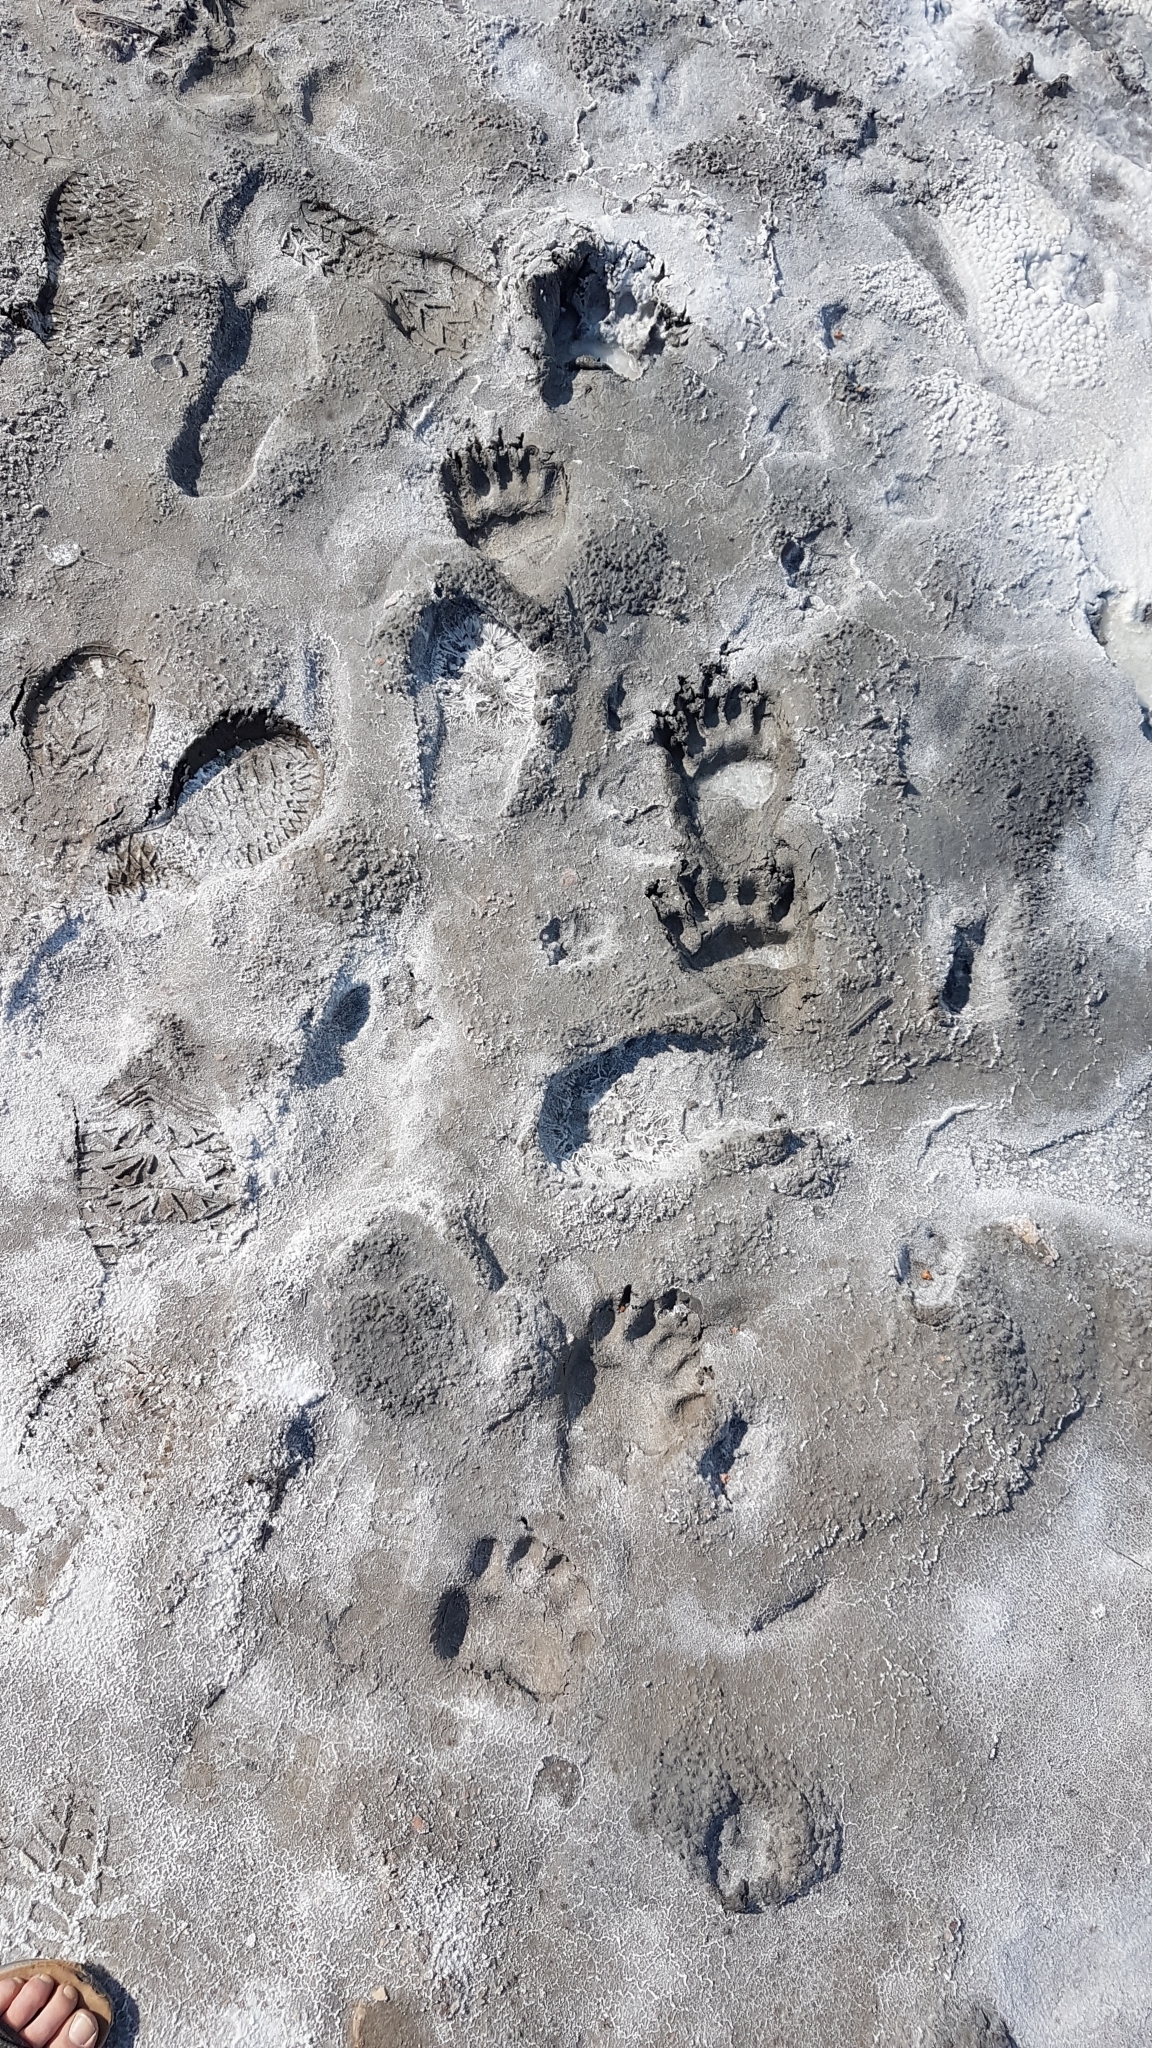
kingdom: Animalia
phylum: Chordata
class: Mammalia
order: Carnivora
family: Ursidae
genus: Ursus
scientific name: Ursus americanus
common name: American black bear
